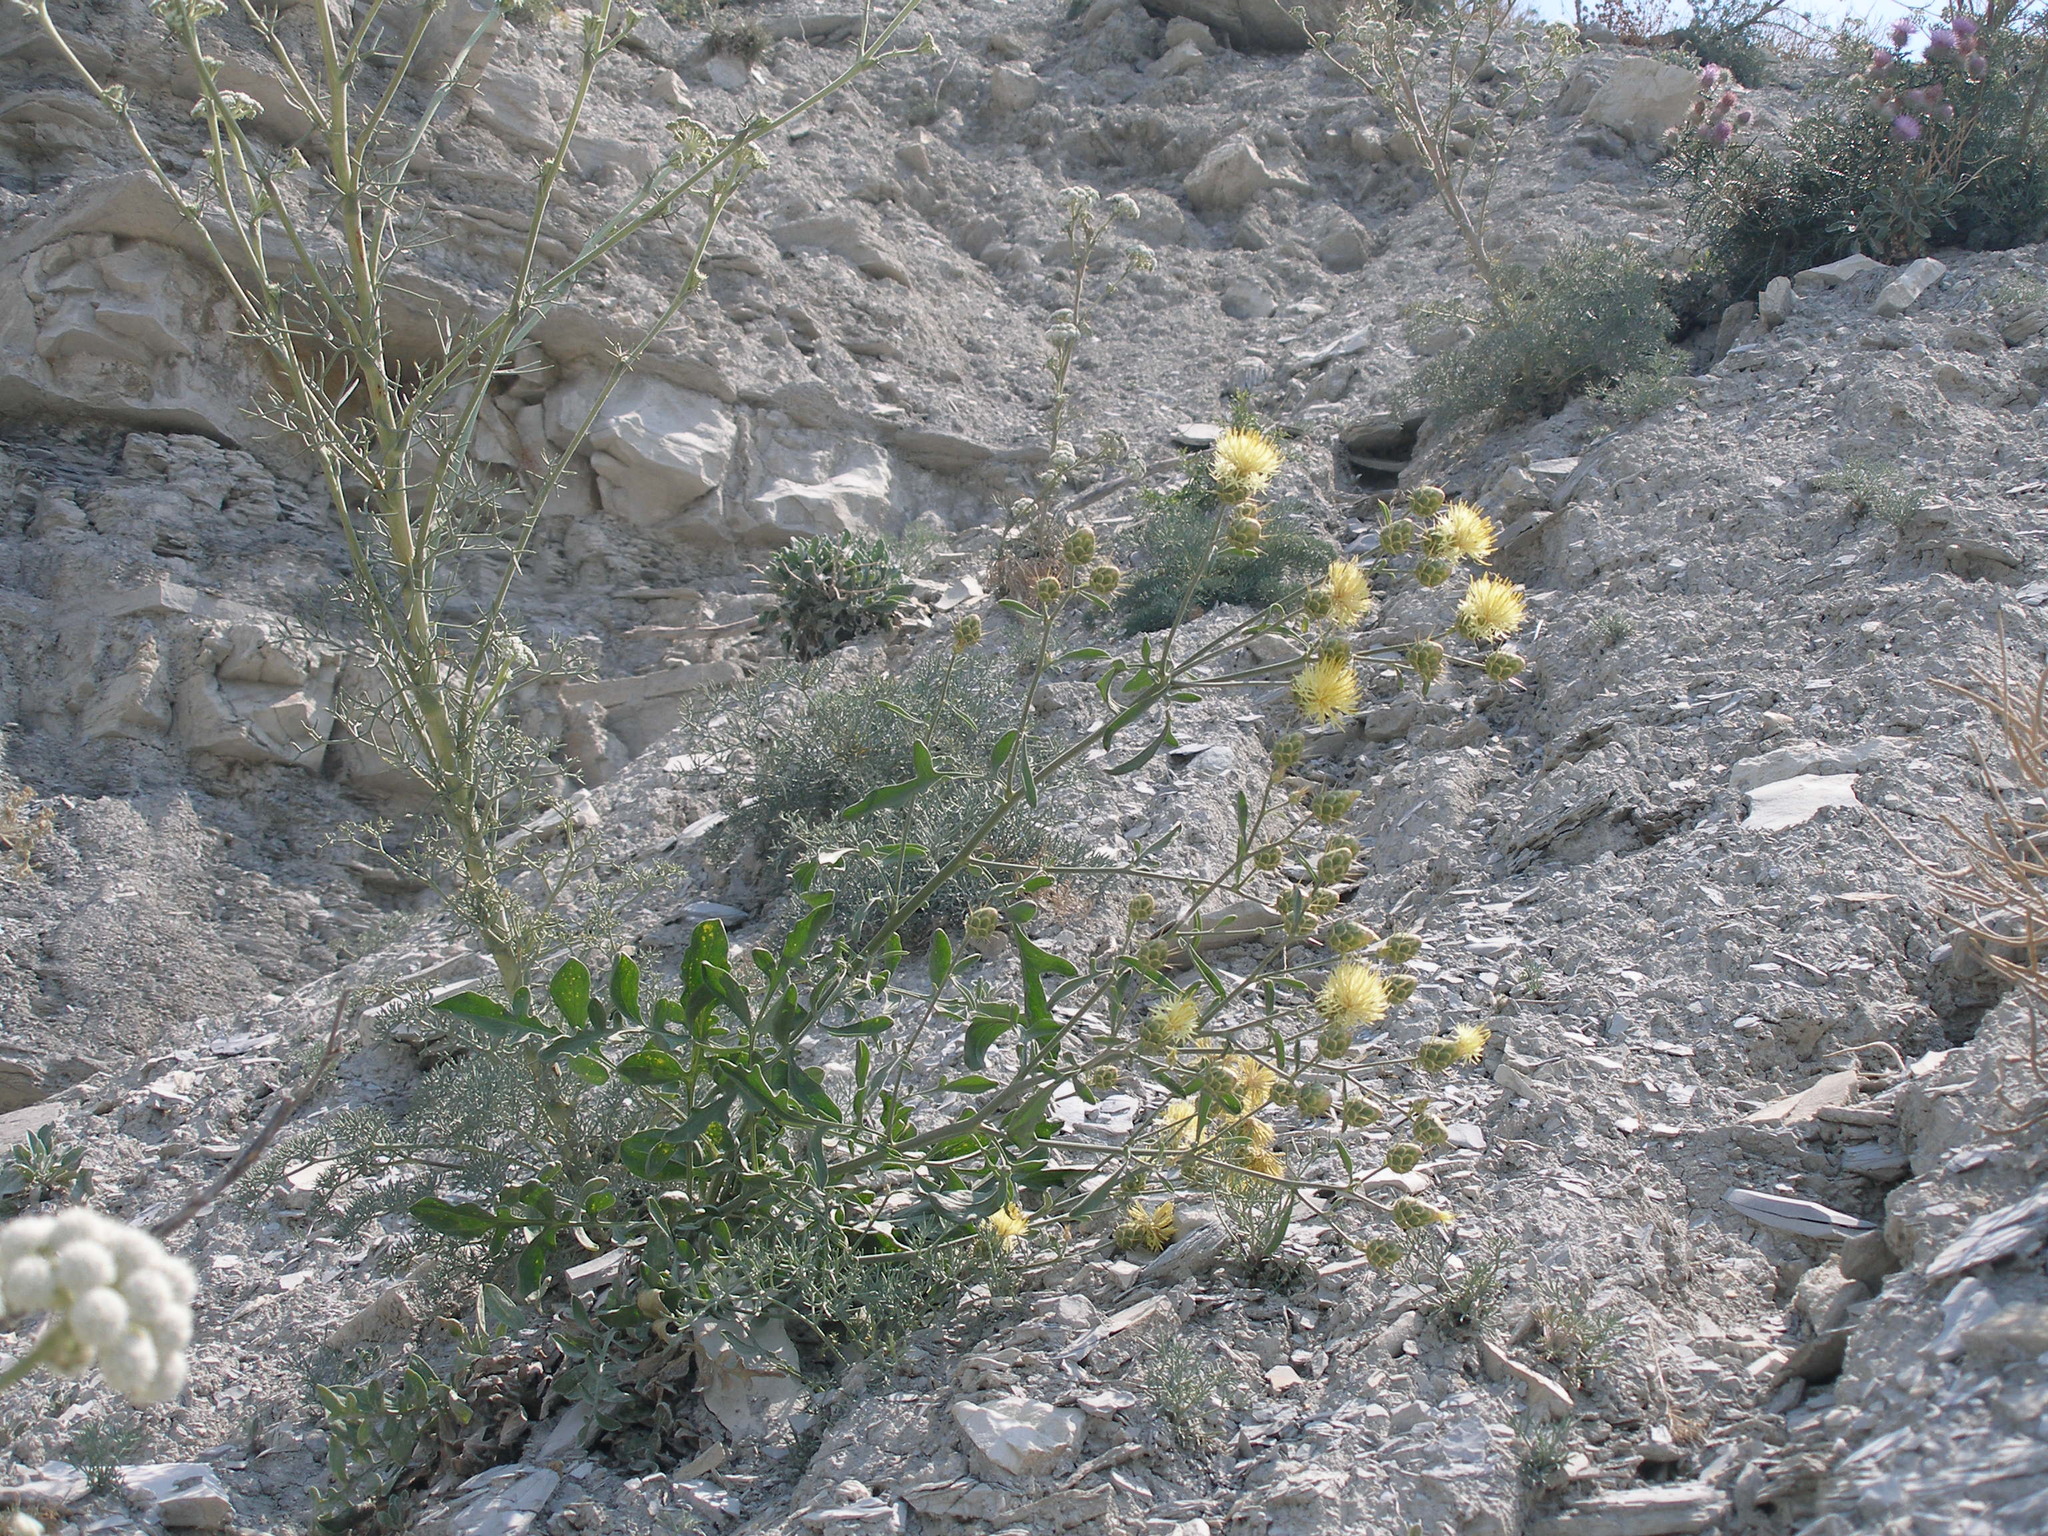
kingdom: Plantae
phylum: Tracheophyta
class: Magnoliopsida
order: Asterales
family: Asteraceae
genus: Centaurea
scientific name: Centaurea salonitana
